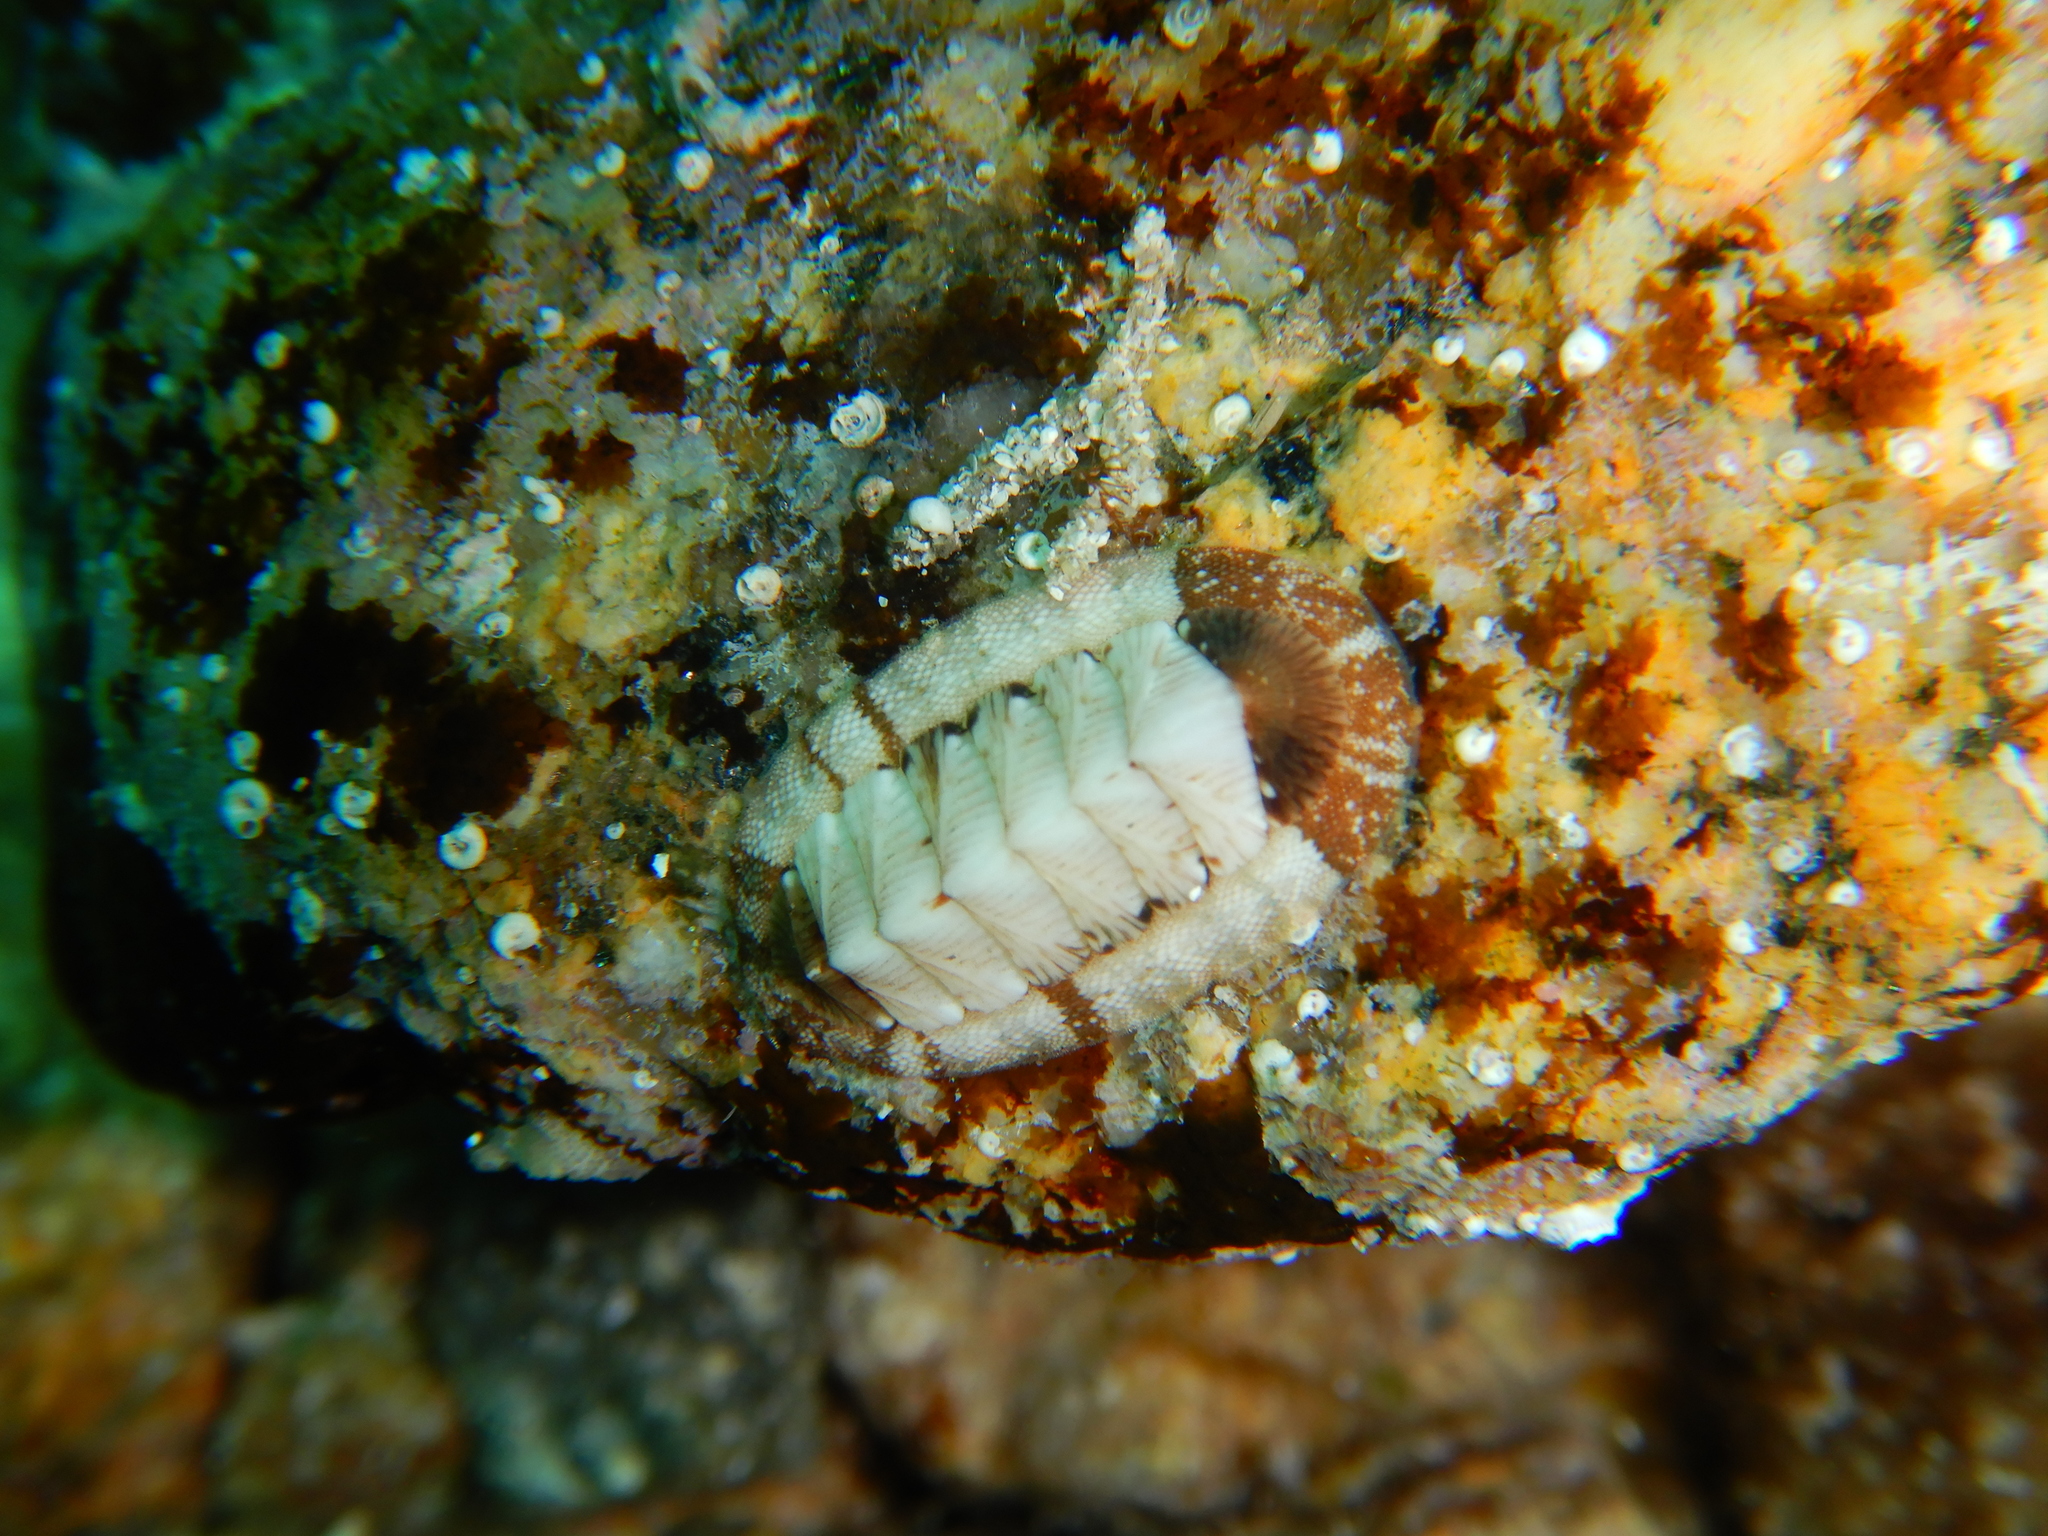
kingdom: Animalia
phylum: Mollusca
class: Polyplacophora
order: Chitonida
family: Chitonidae
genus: Rhyssoplax
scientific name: Rhyssoplax olivacea
